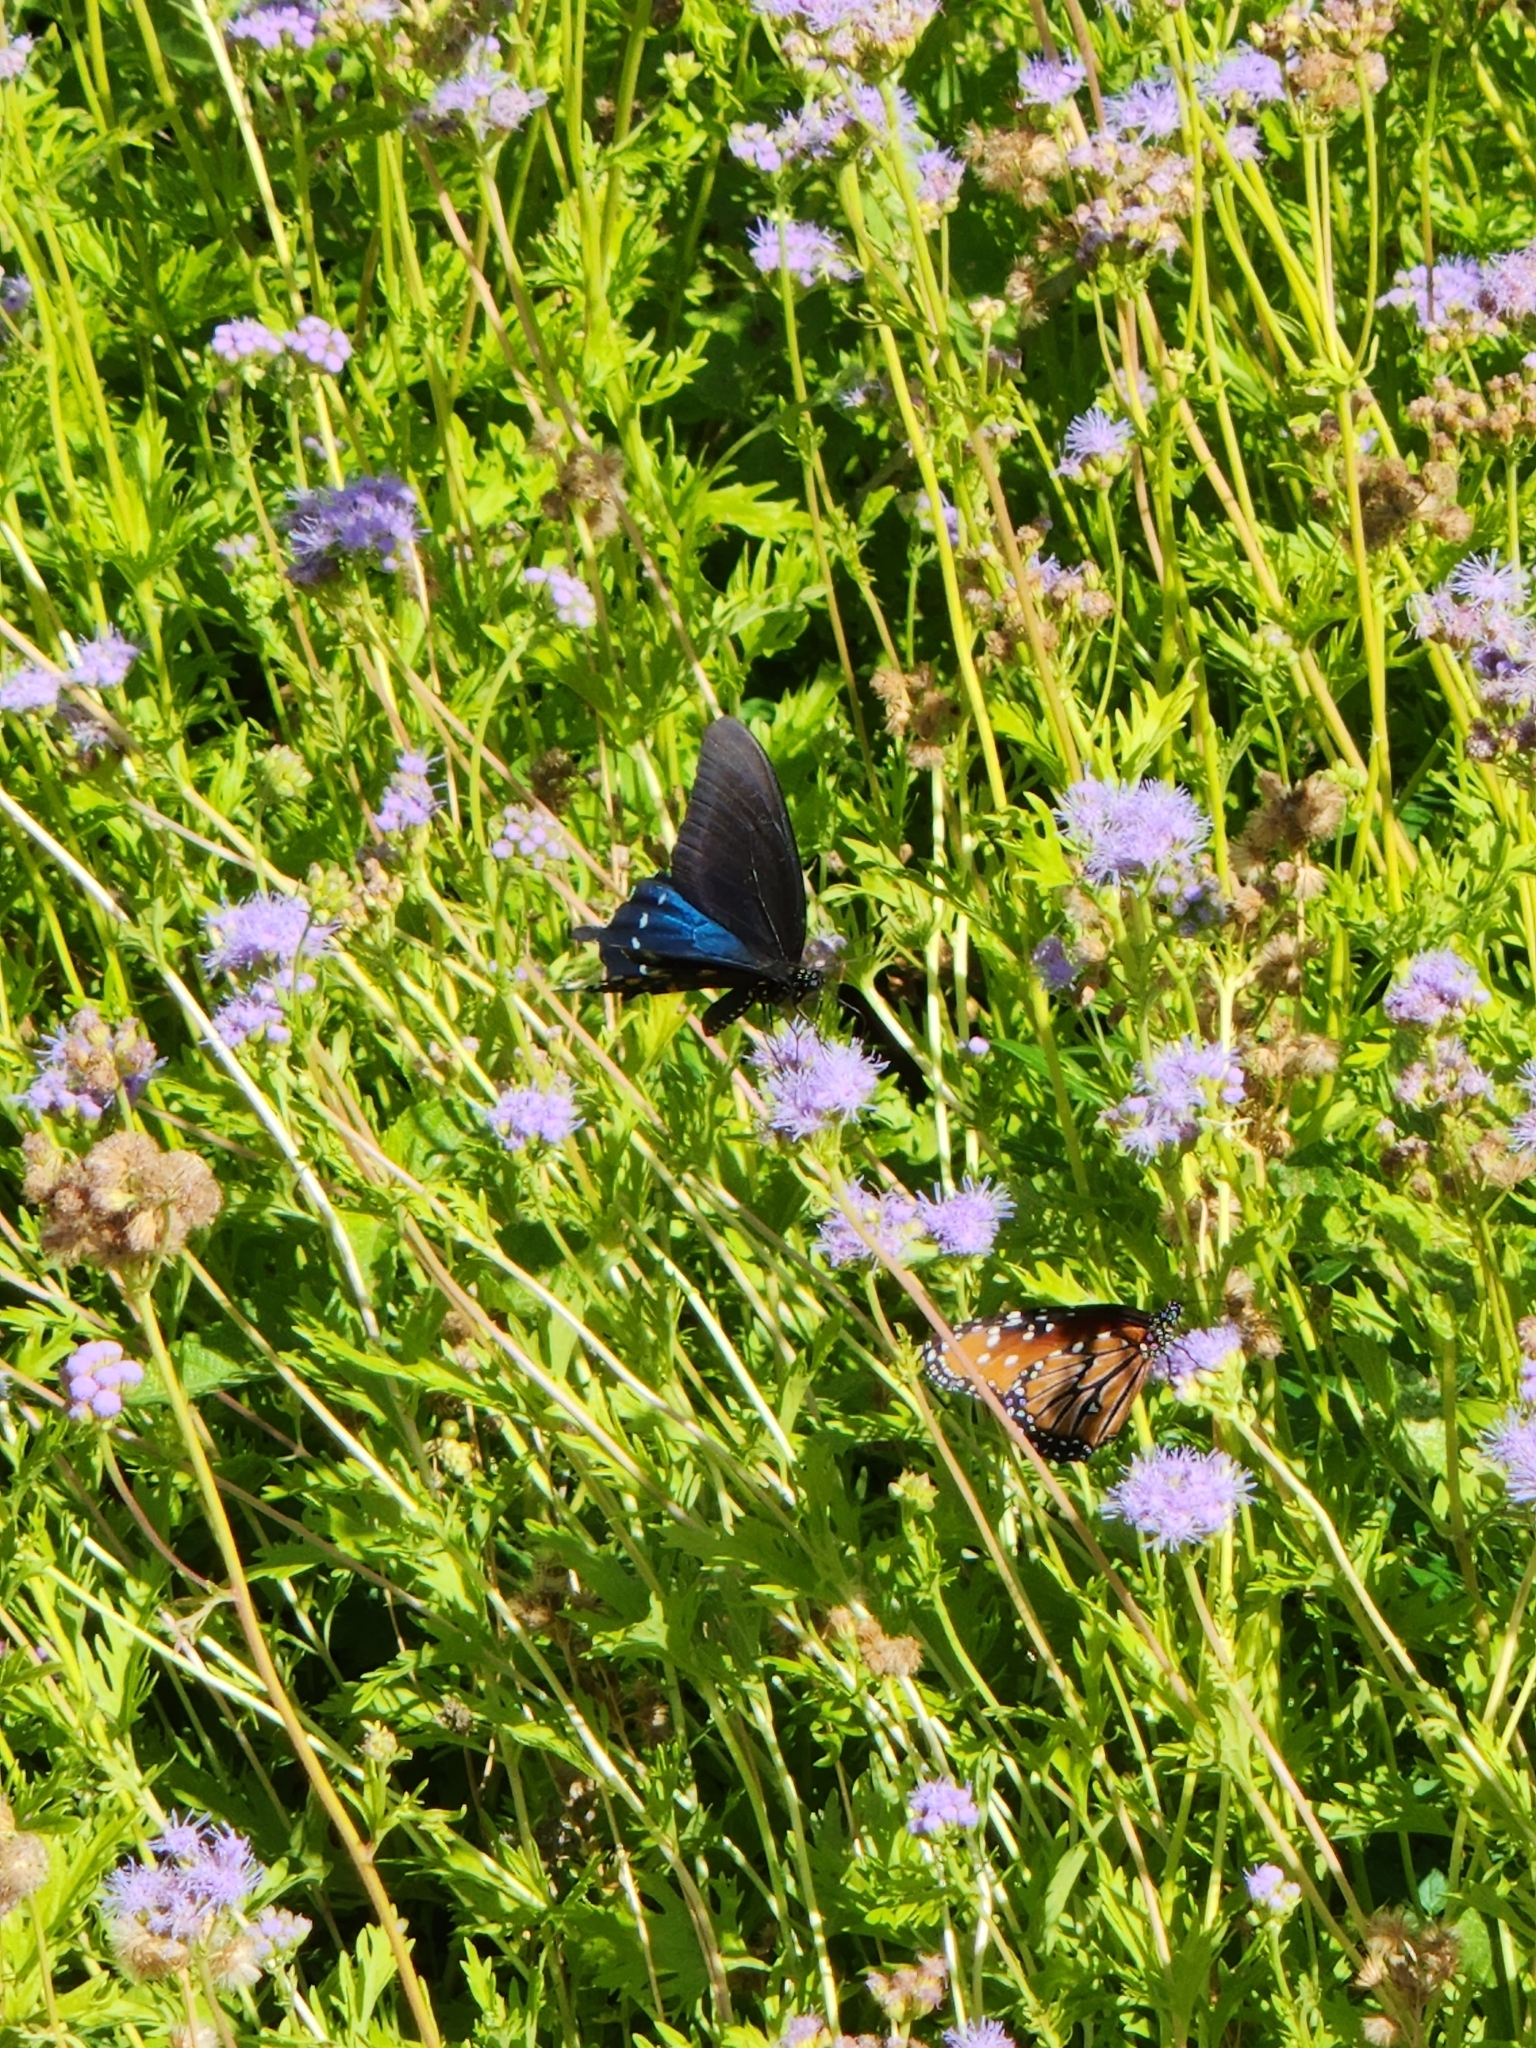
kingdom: Animalia
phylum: Arthropoda
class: Insecta
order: Lepidoptera
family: Papilionidae
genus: Battus
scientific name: Battus philenor
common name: Pipevine swallowtail
